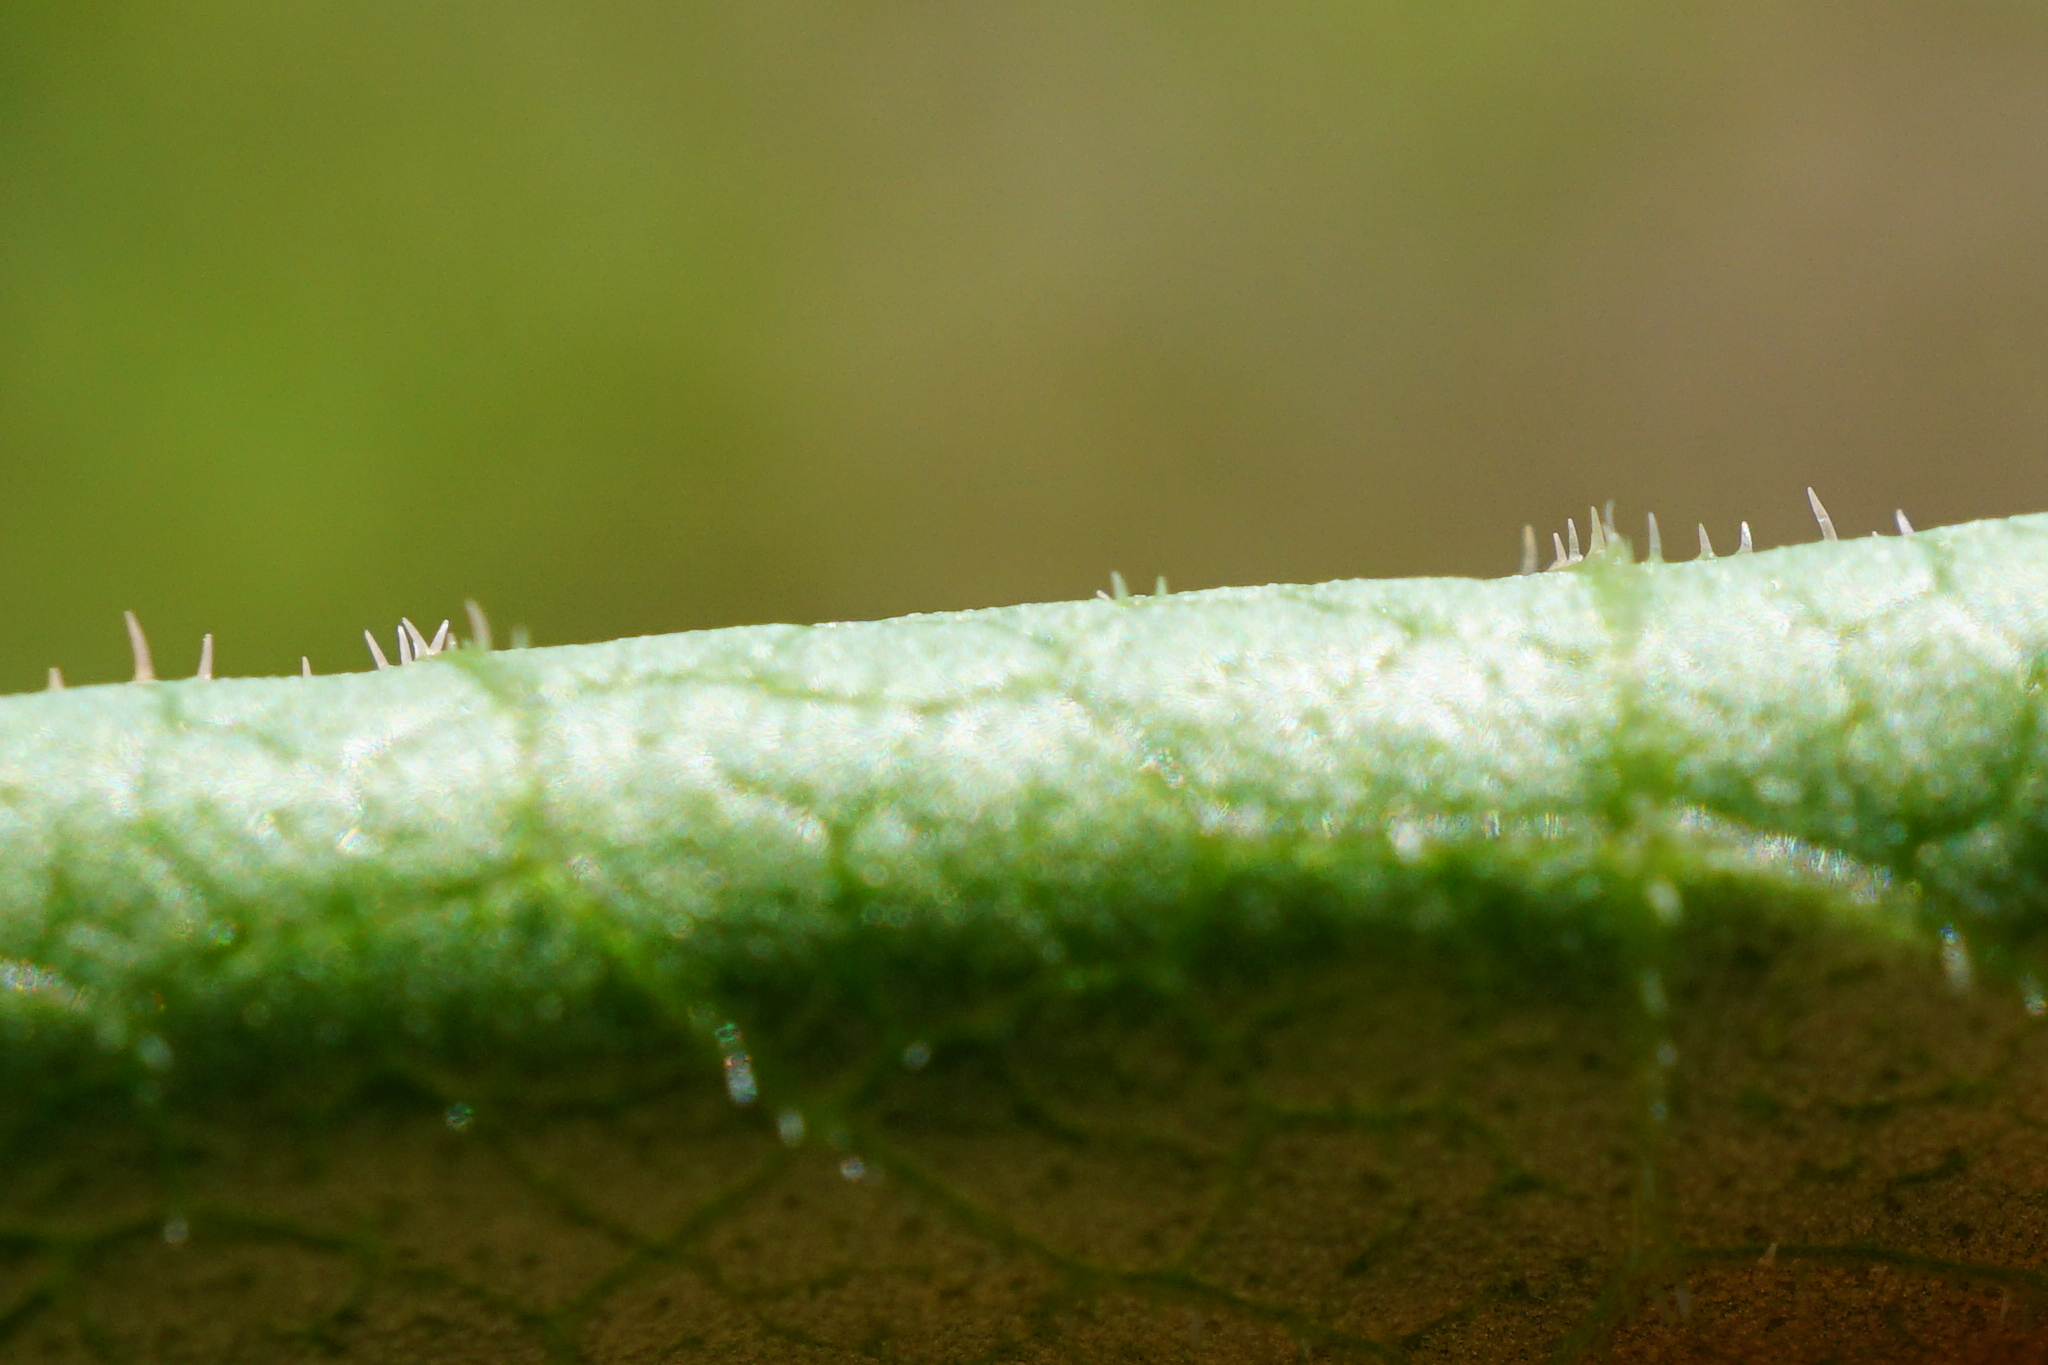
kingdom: Plantae
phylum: Tracheophyta
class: Magnoliopsida
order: Caryophyllales
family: Polygonaceae
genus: Reynoutria
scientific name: Reynoutria bohemica
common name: Bohemian knotweed
